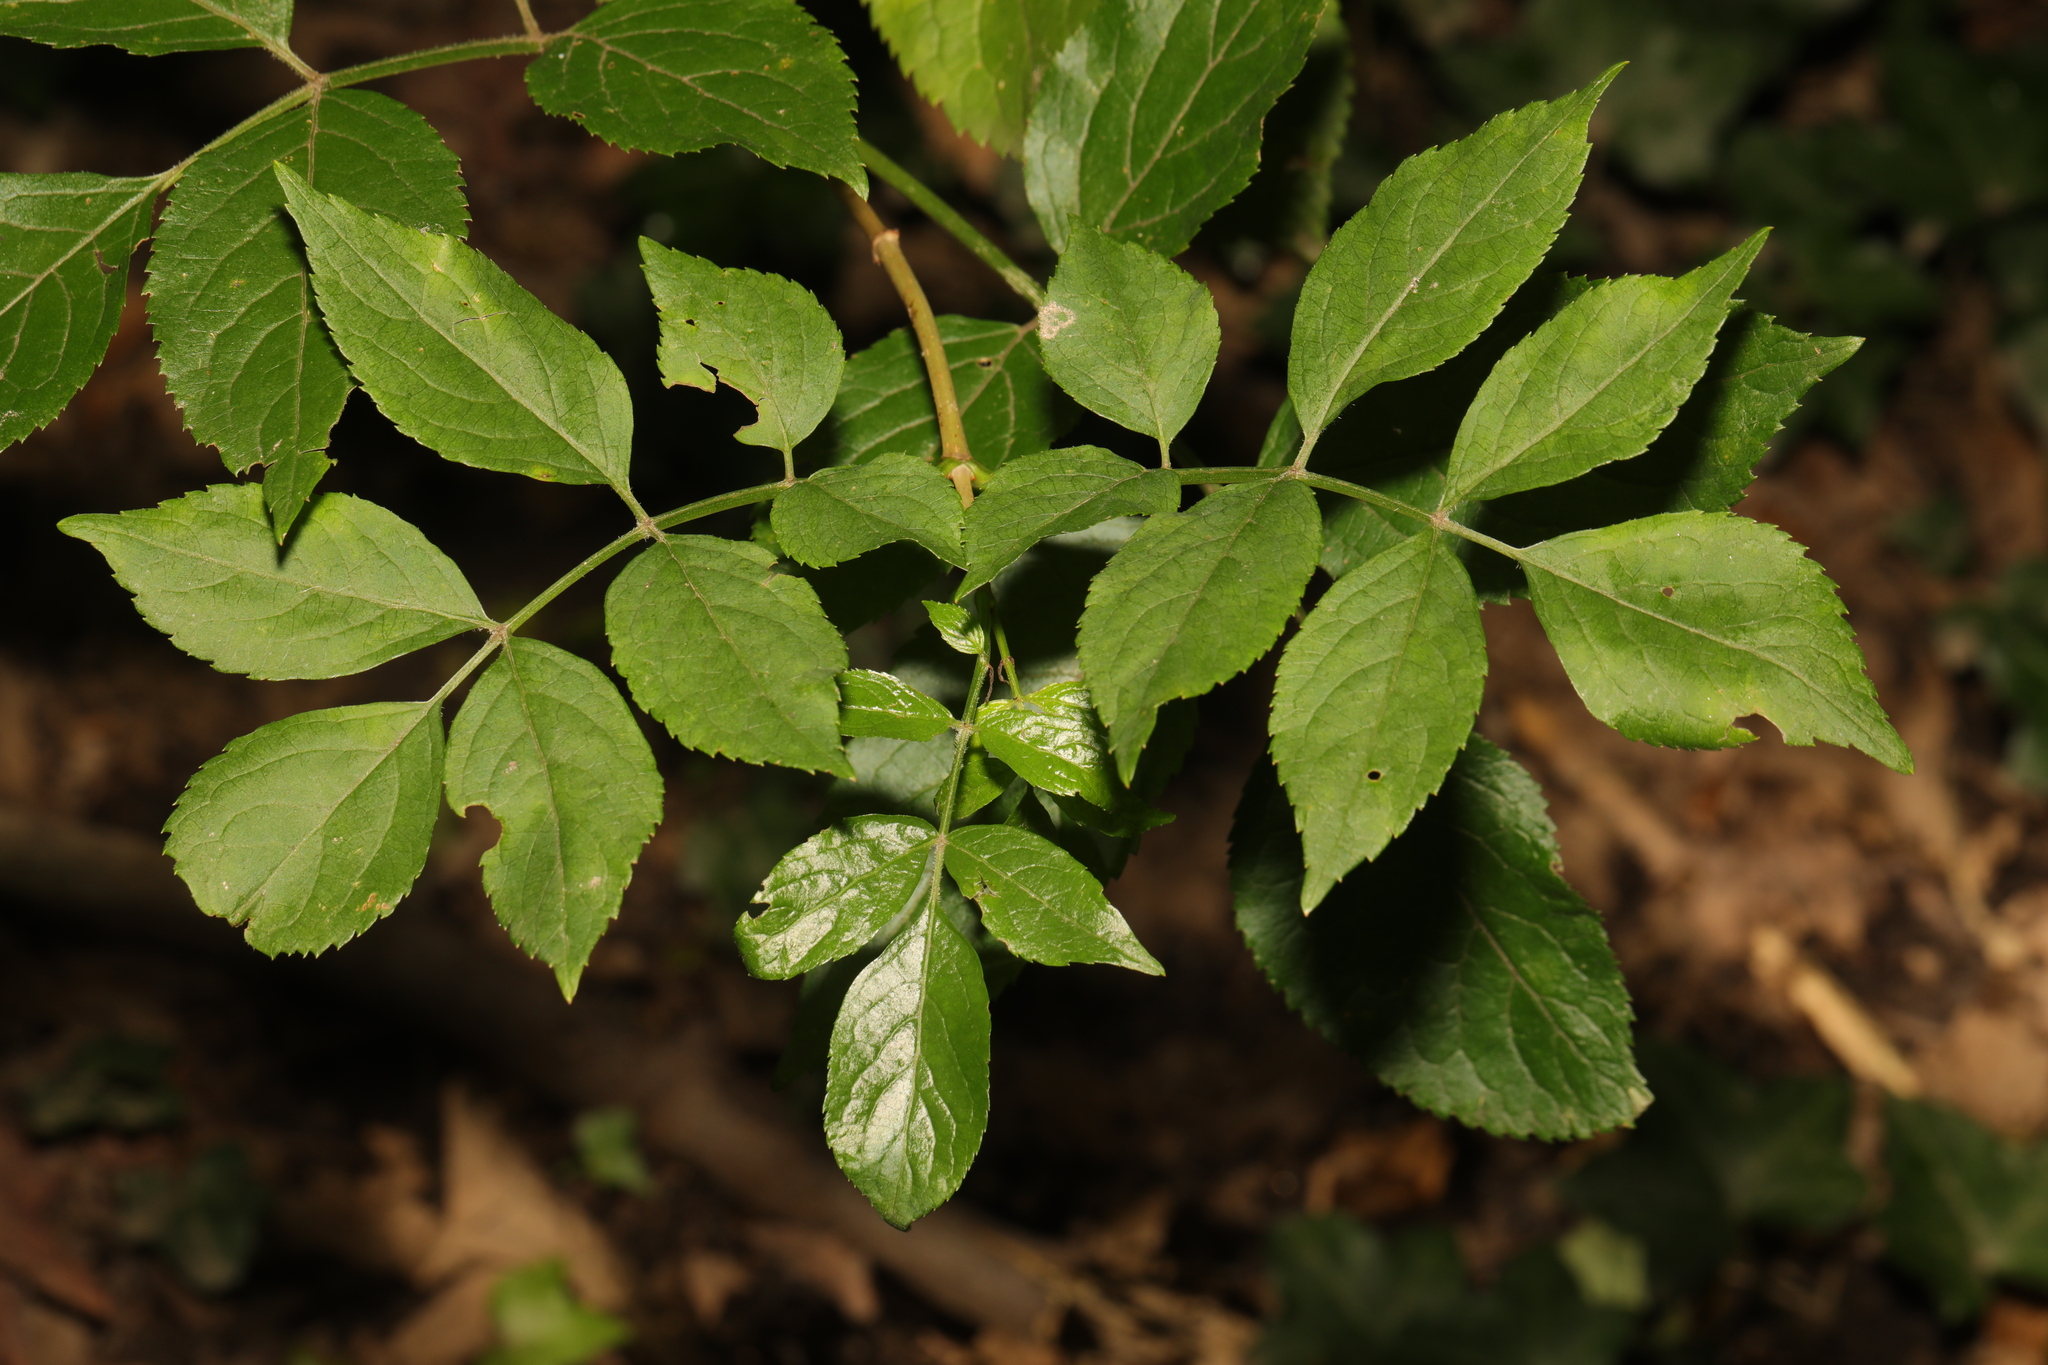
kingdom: Plantae
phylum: Tracheophyta
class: Magnoliopsida
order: Dipsacales
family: Viburnaceae
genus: Sambucus
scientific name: Sambucus nigra
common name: Elder
